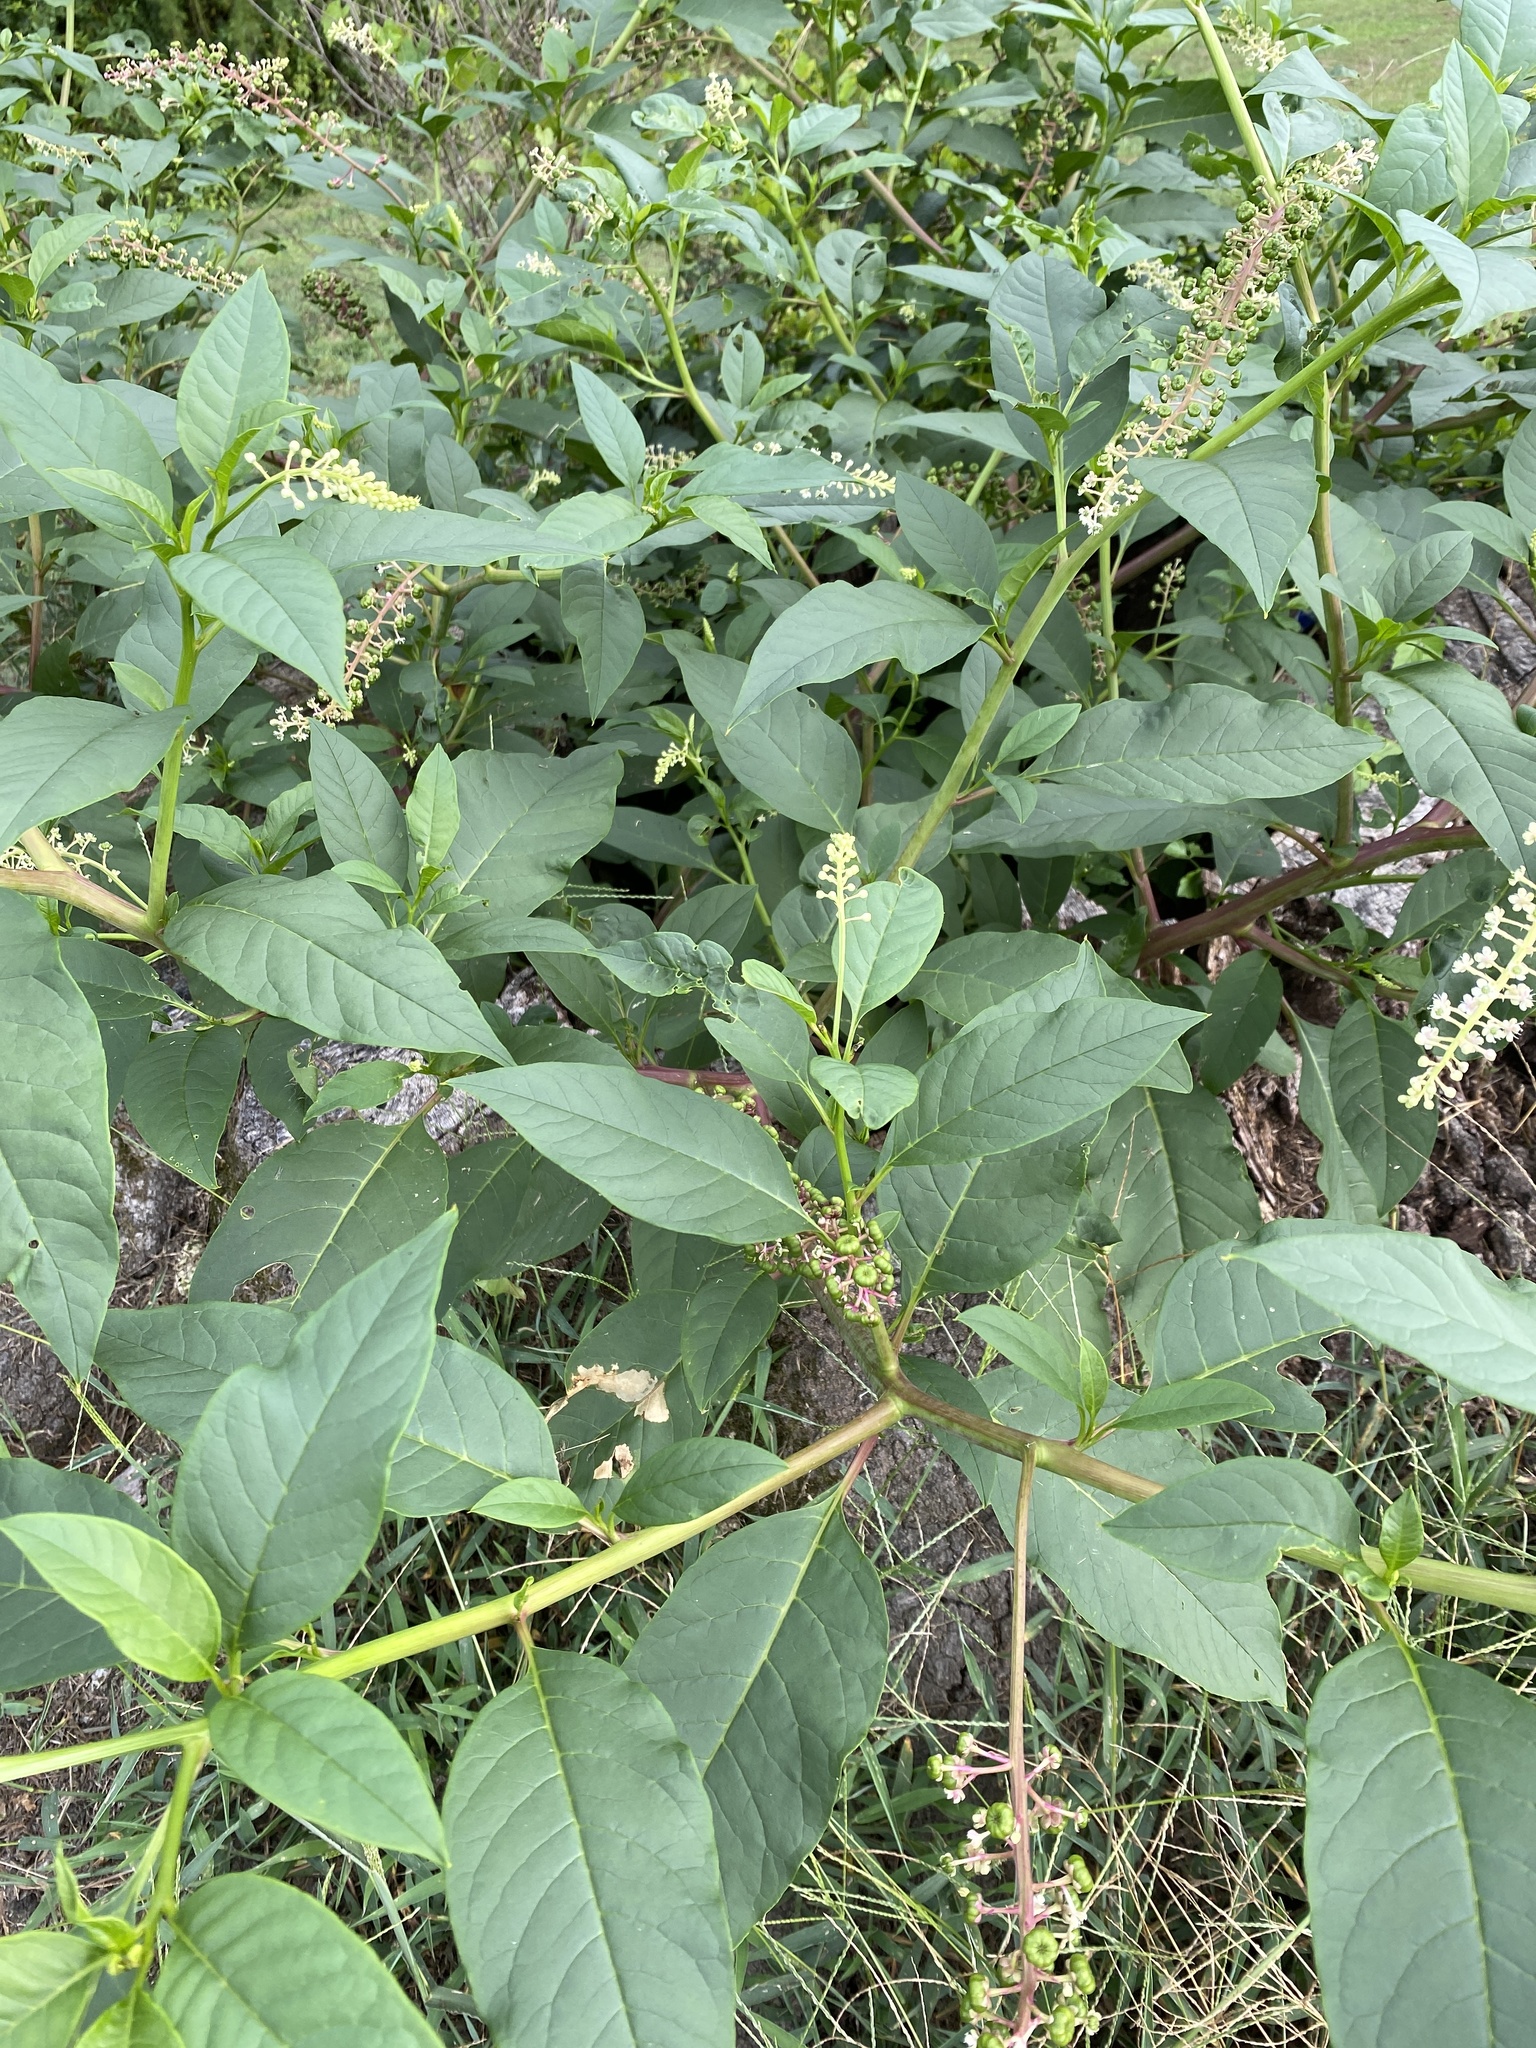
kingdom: Plantae
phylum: Tracheophyta
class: Magnoliopsida
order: Caryophyllales
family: Phytolaccaceae
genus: Phytolacca
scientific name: Phytolacca americana
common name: American pokeweed
